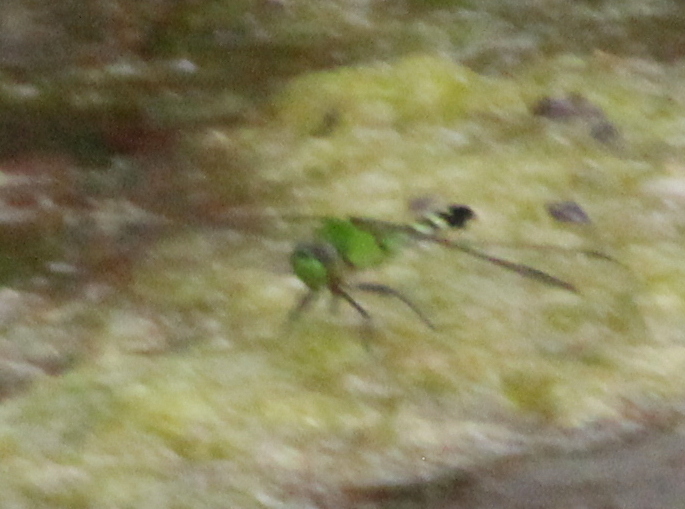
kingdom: Animalia
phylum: Arthropoda
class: Insecta
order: Odonata
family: Libellulidae
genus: Erythemis
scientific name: Erythemis simplicicollis
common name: Eastern pondhawk
